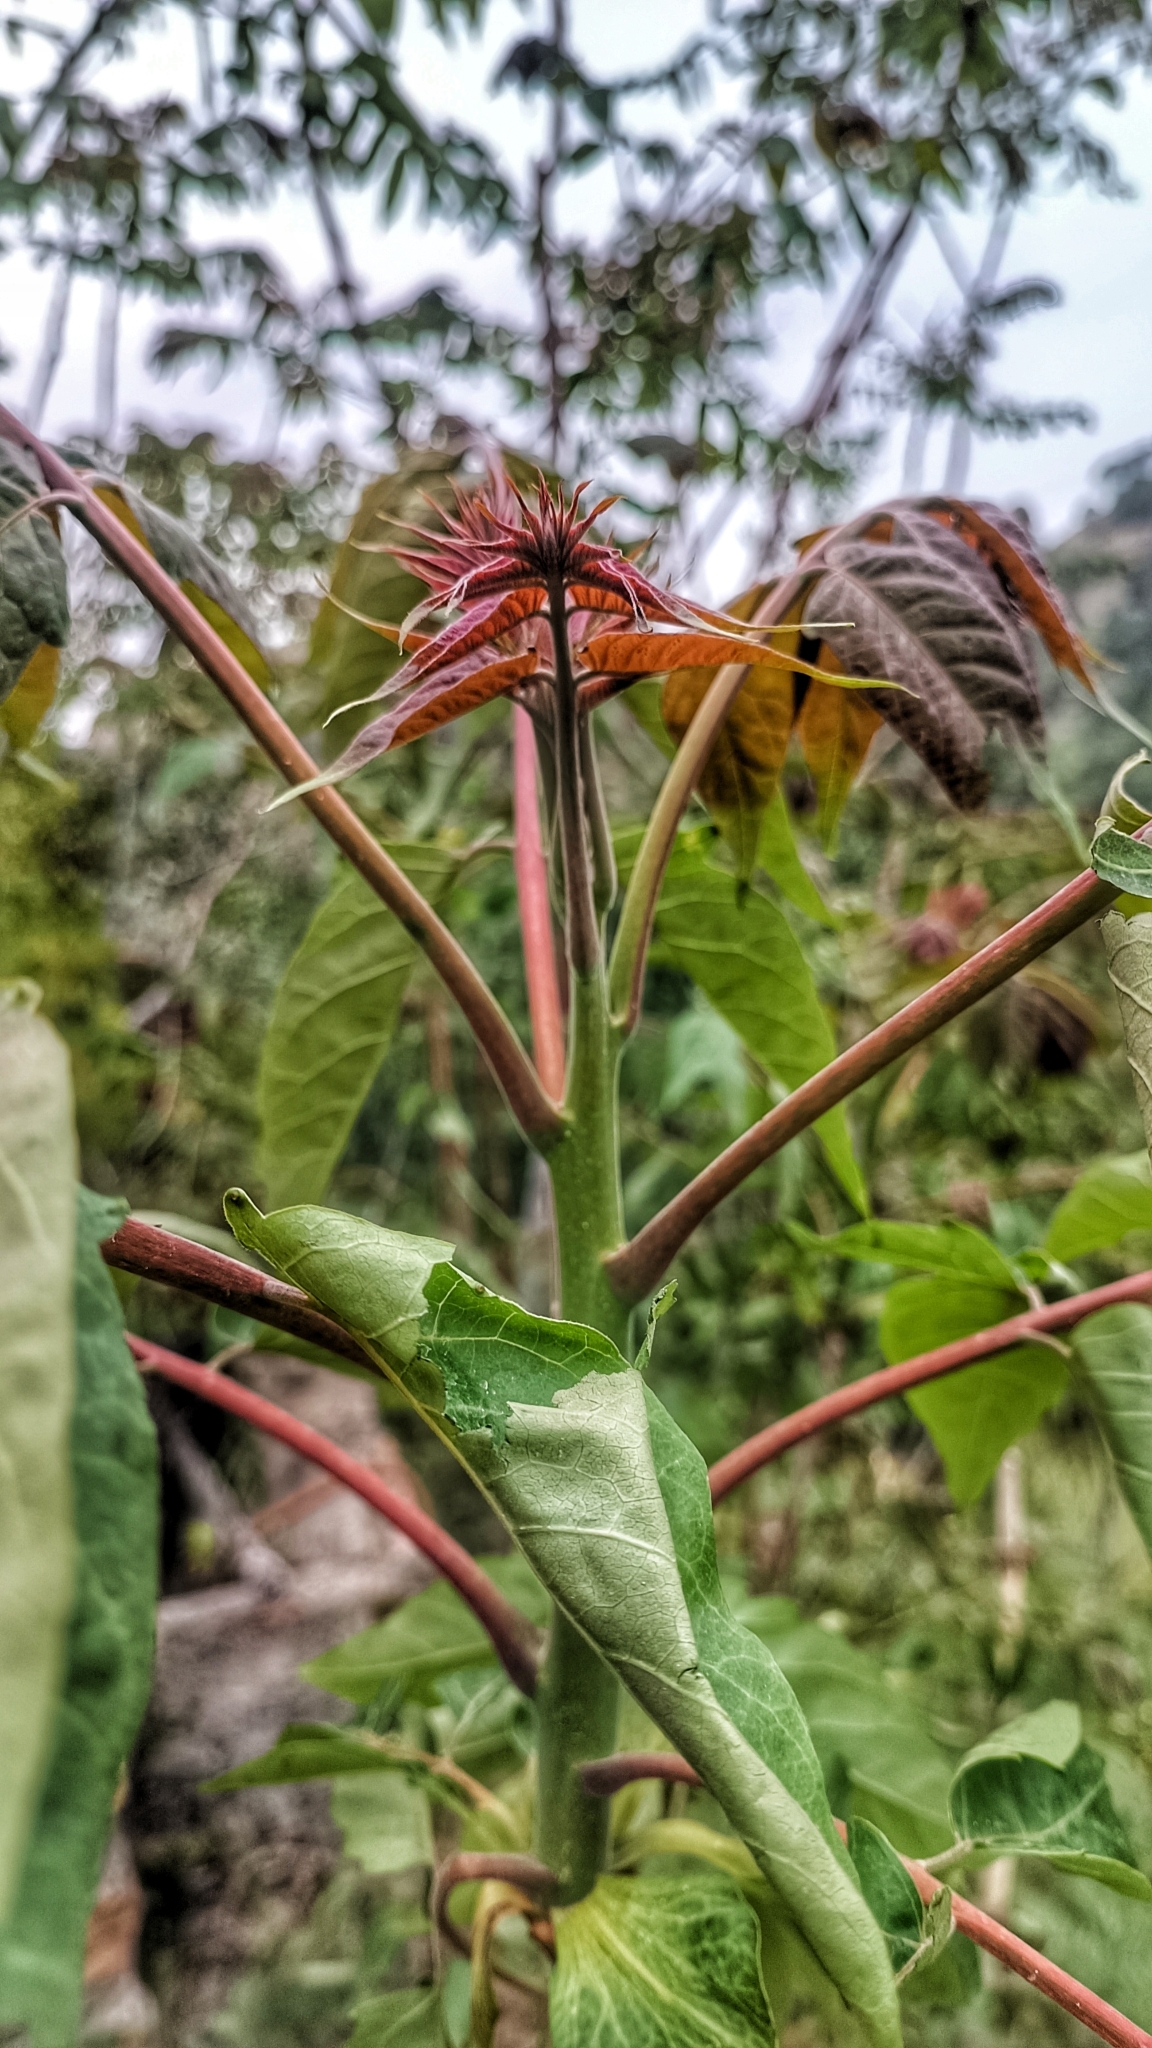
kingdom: Plantae
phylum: Tracheophyta
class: Magnoliopsida
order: Sapindales
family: Simaroubaceae
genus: Ailanthus
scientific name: Ailanthus altissima
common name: Tree-of-heaven
